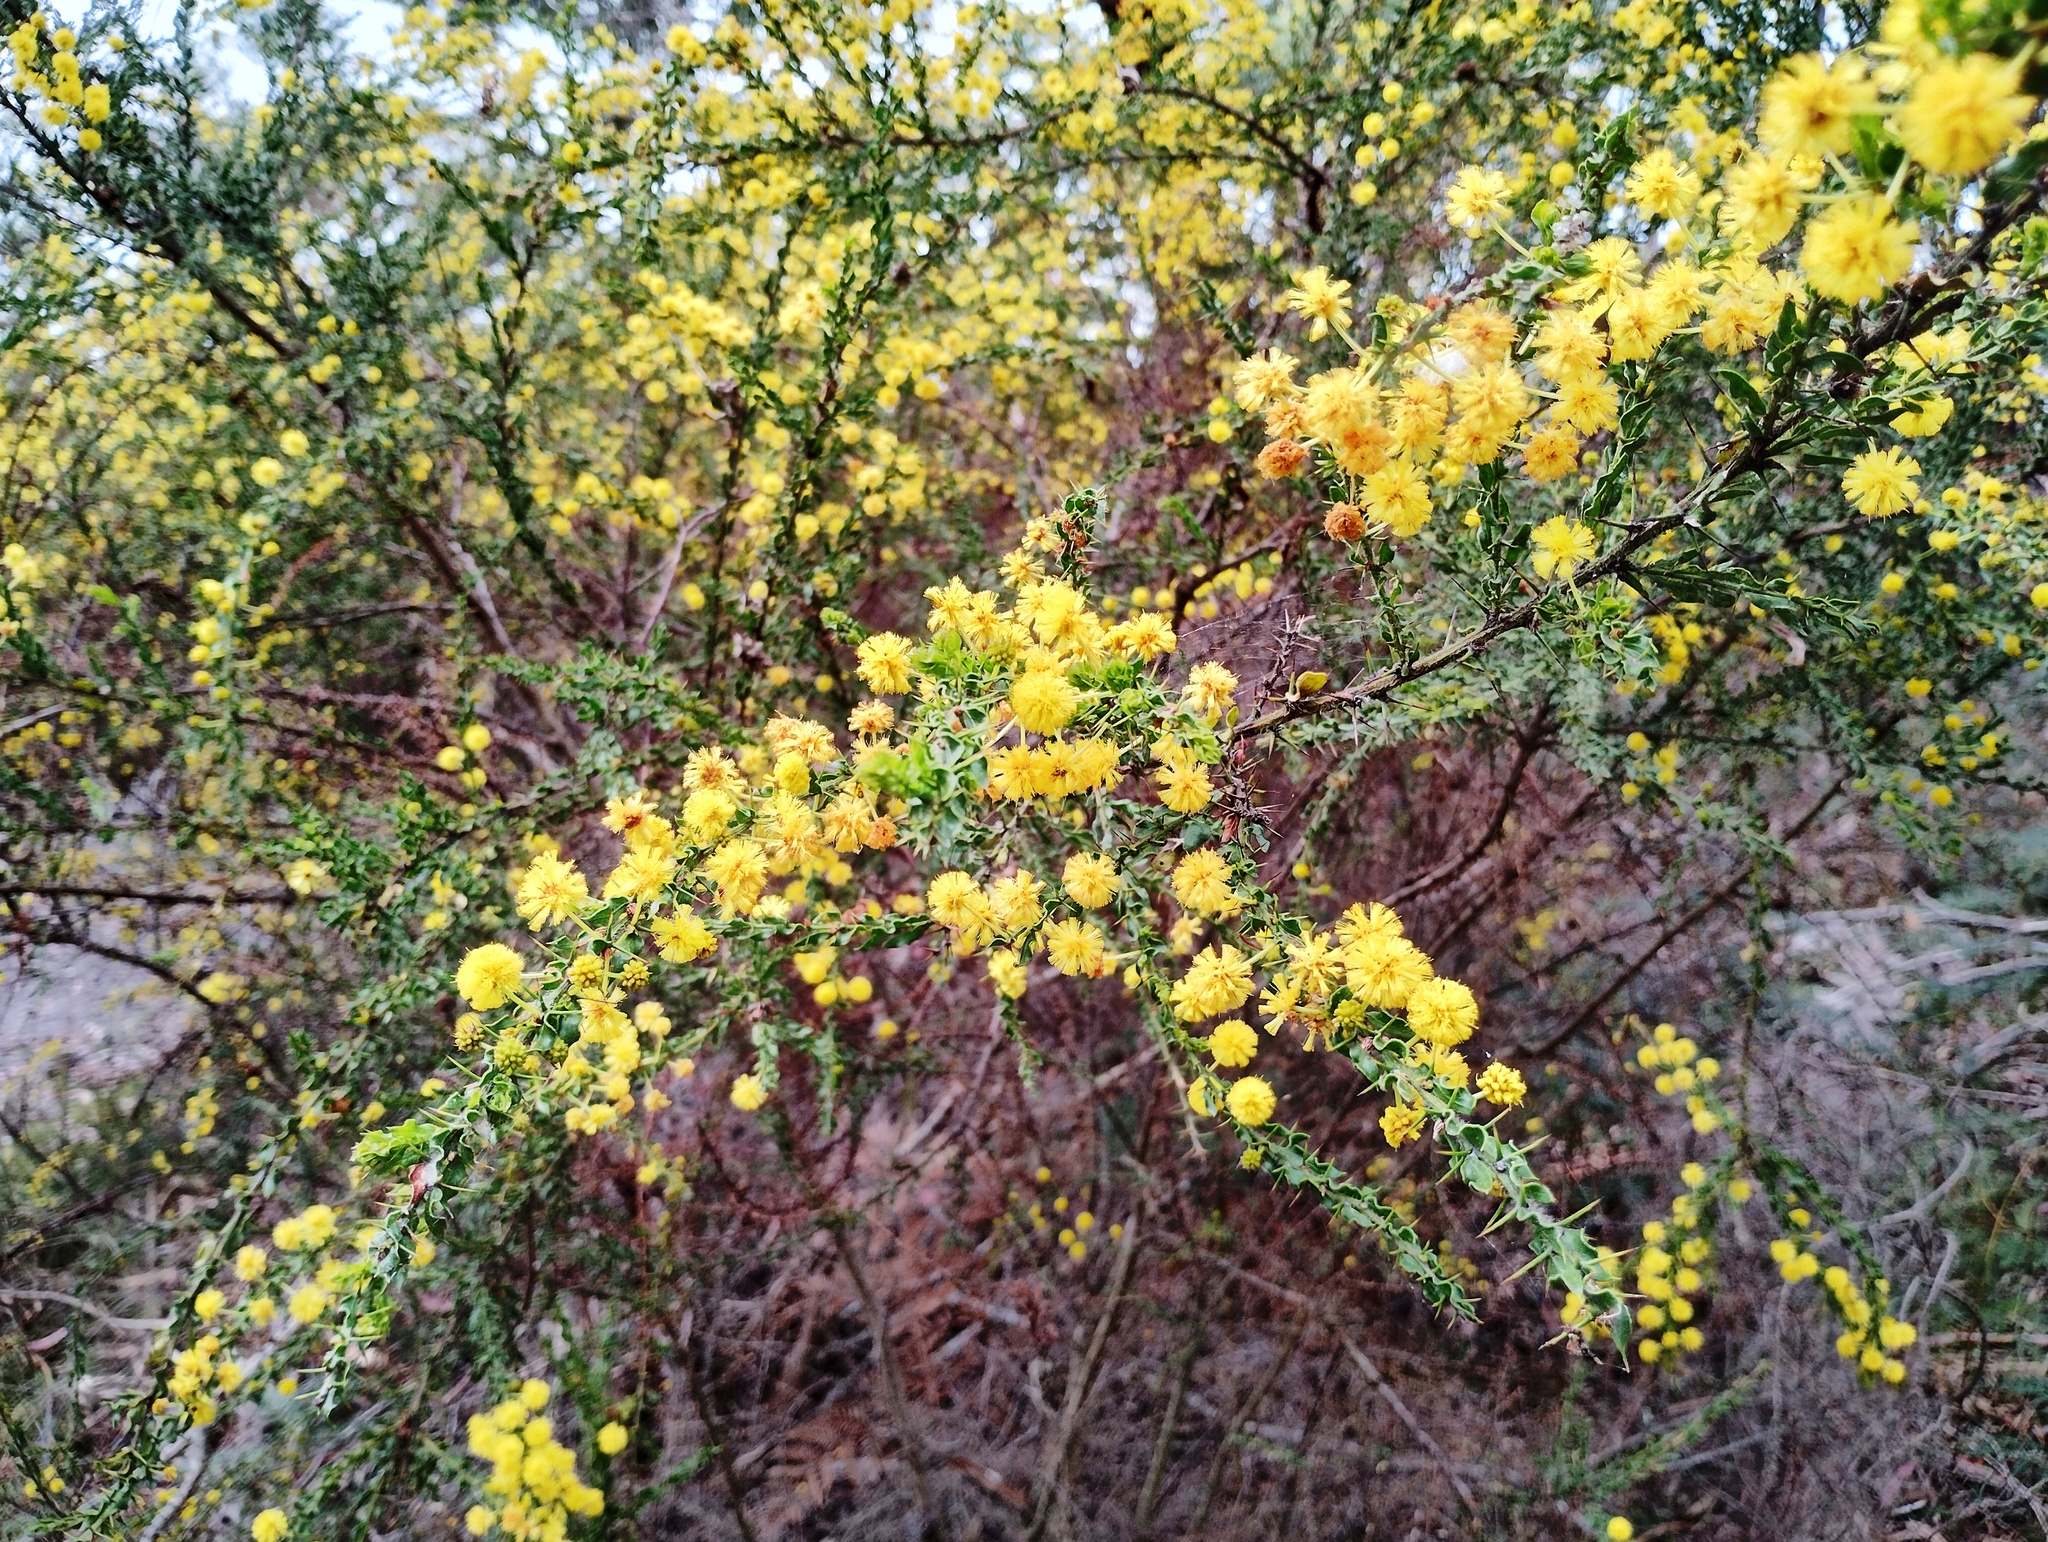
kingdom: Plantae
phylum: Tracheophyta
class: Magnoliopsida
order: Fabales
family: Fabaceae
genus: Acacia
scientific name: Acacia paradoxa
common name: Paradox acacia
